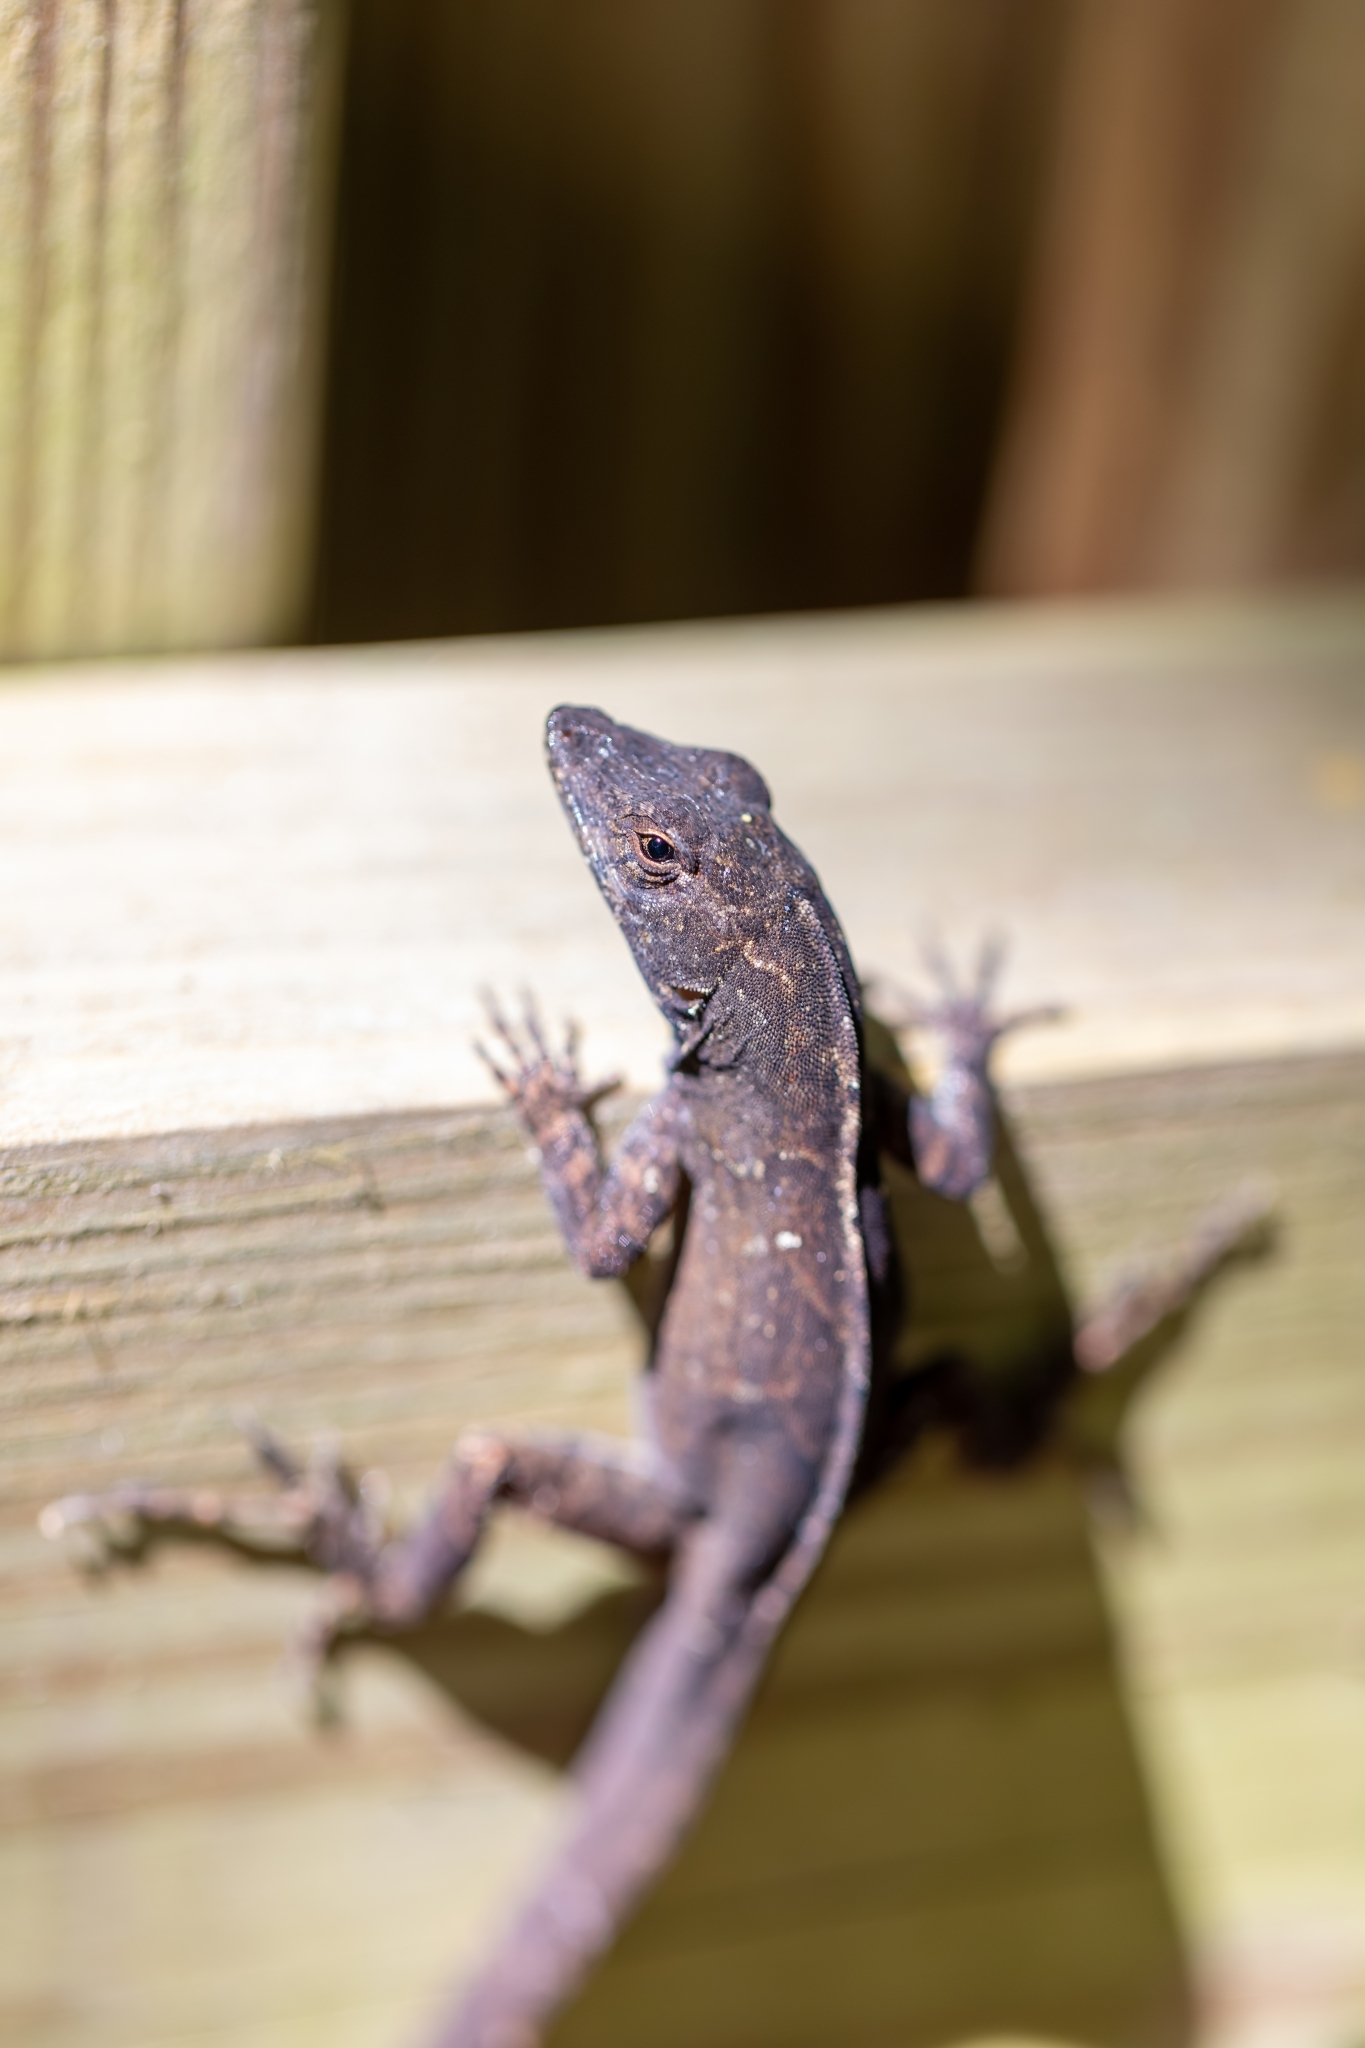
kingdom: Animalia
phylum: Chordata
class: Squamata
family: Dactyloidae
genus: Anolis
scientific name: Anolis sagrei
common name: Brown anole
